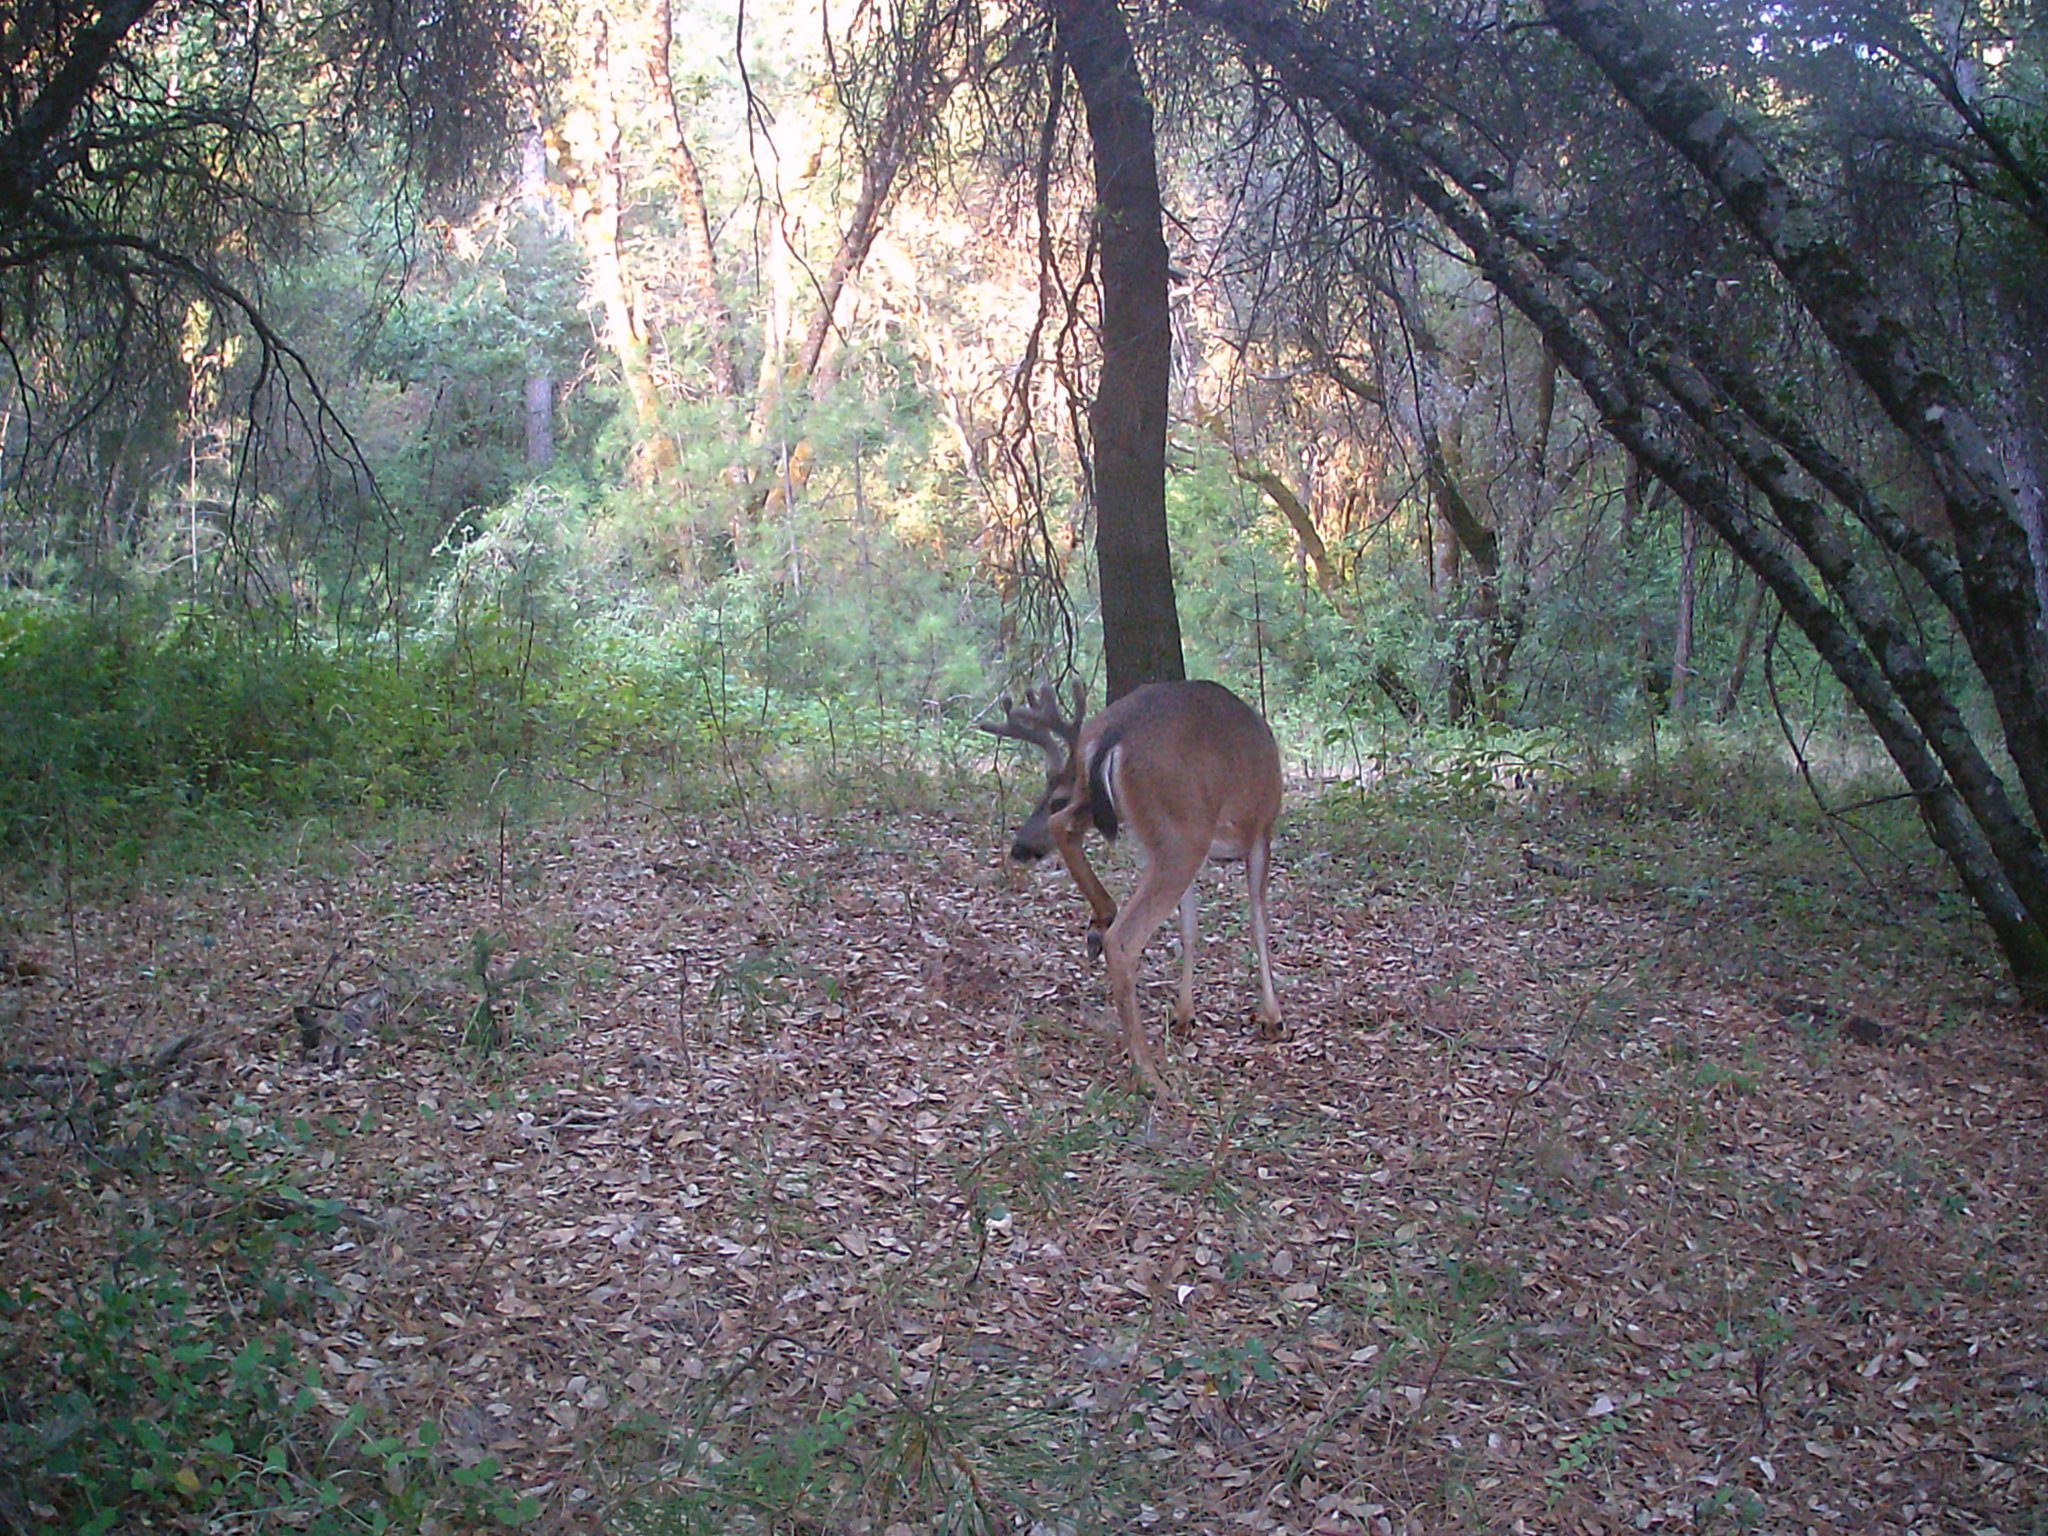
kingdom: Animalia
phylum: Chordata
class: Mammalia
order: Artiodactyla
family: Cervidae
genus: Odocoileus
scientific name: Odocoileus hemionus
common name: Mule deer
